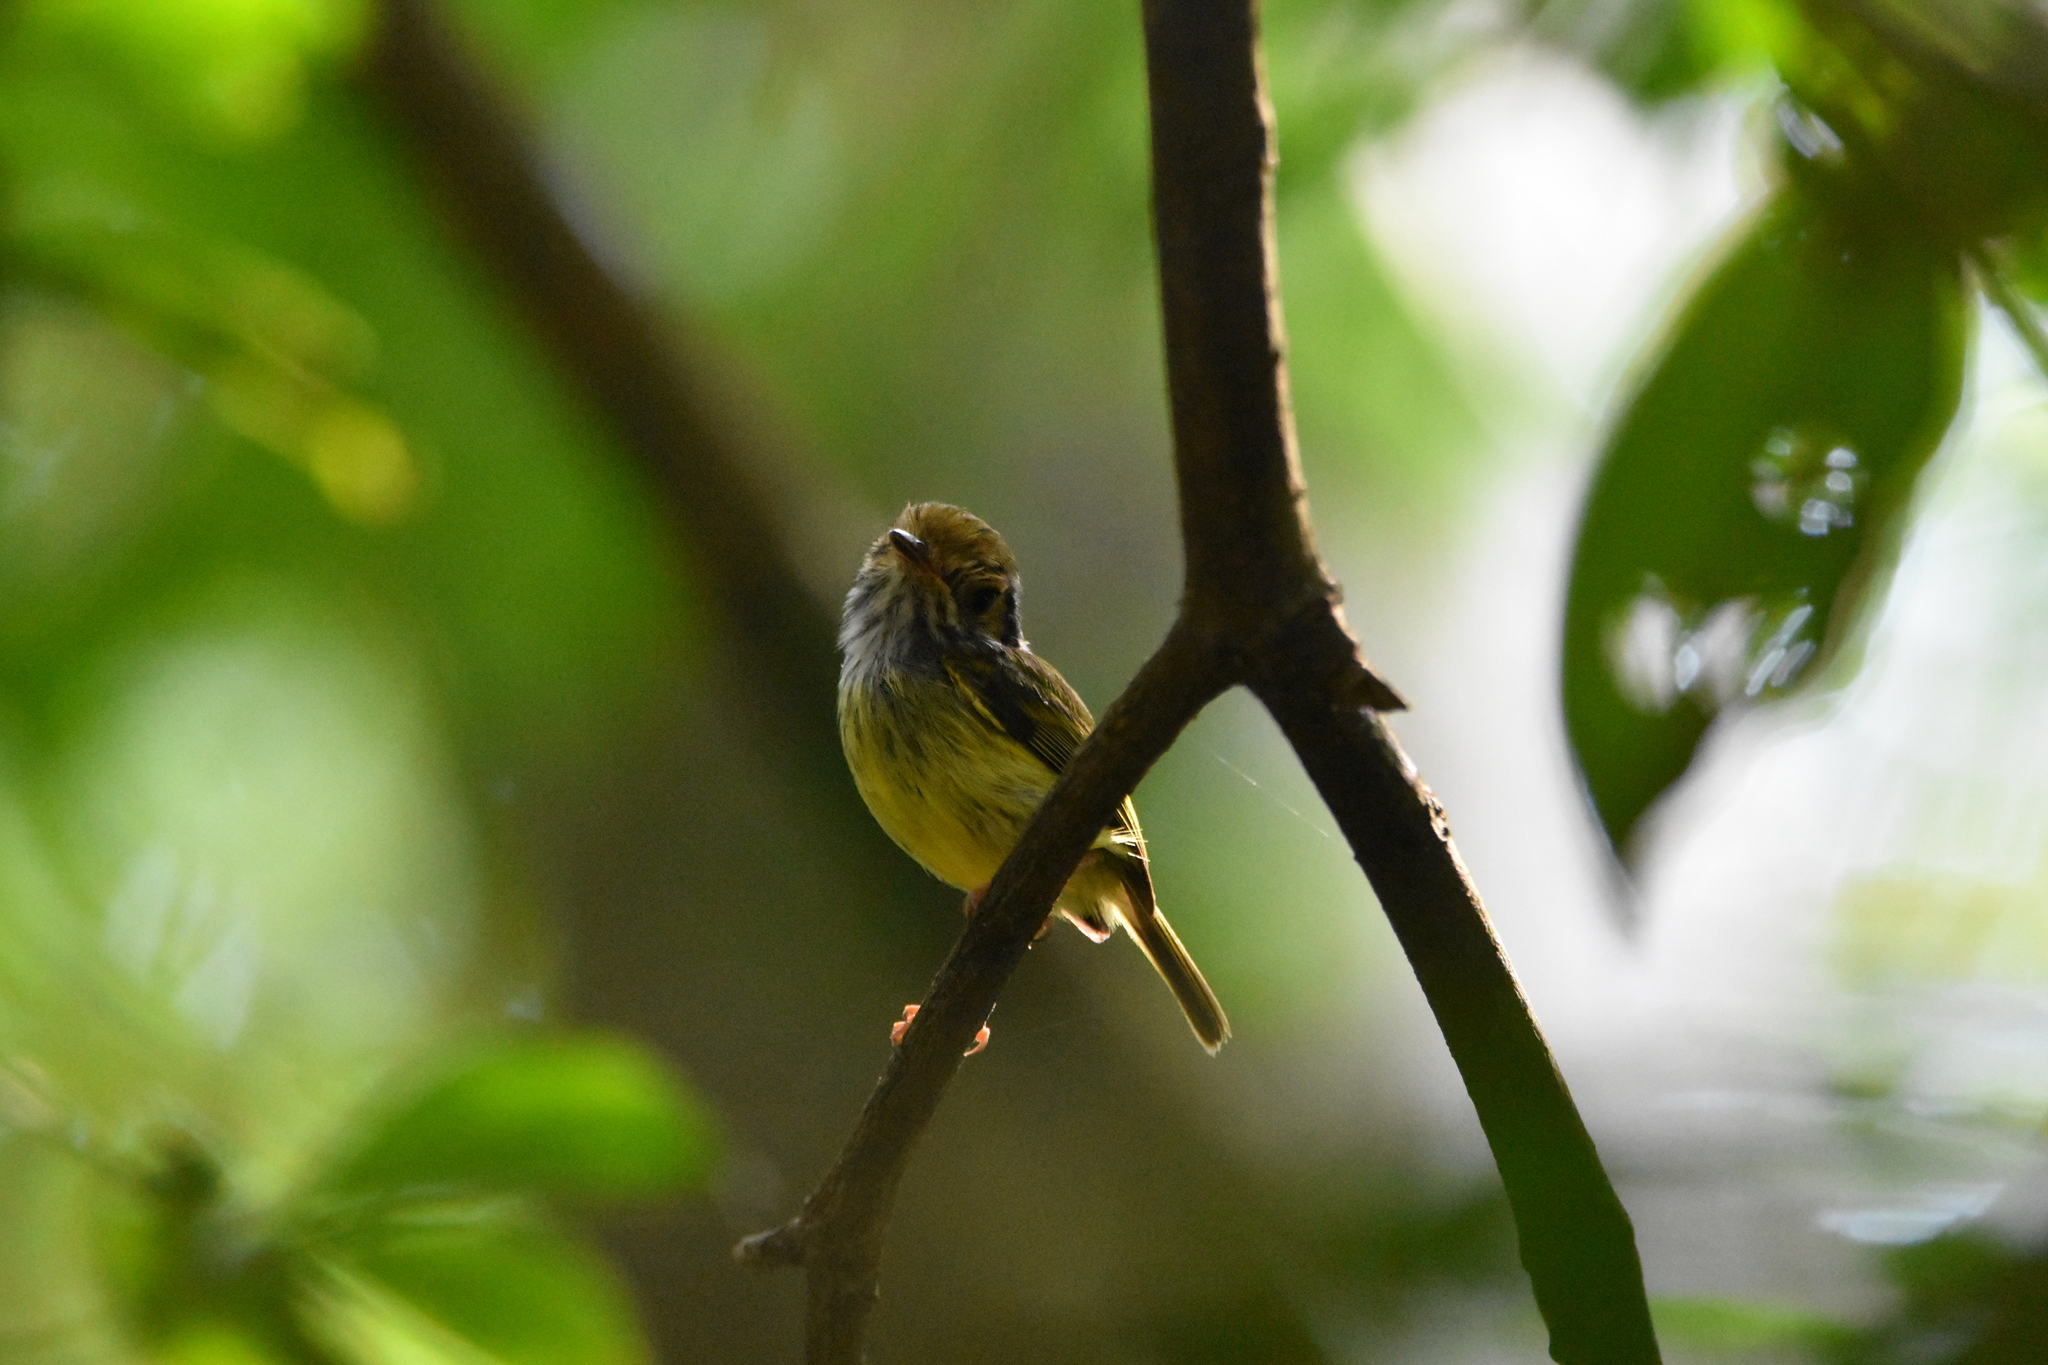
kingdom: Animalia
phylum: Chordata
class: Aves
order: Passeriformes
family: Tyrannidae
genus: Myiornis
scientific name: Myiornis auricularis
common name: Eared pygmy tyrant
